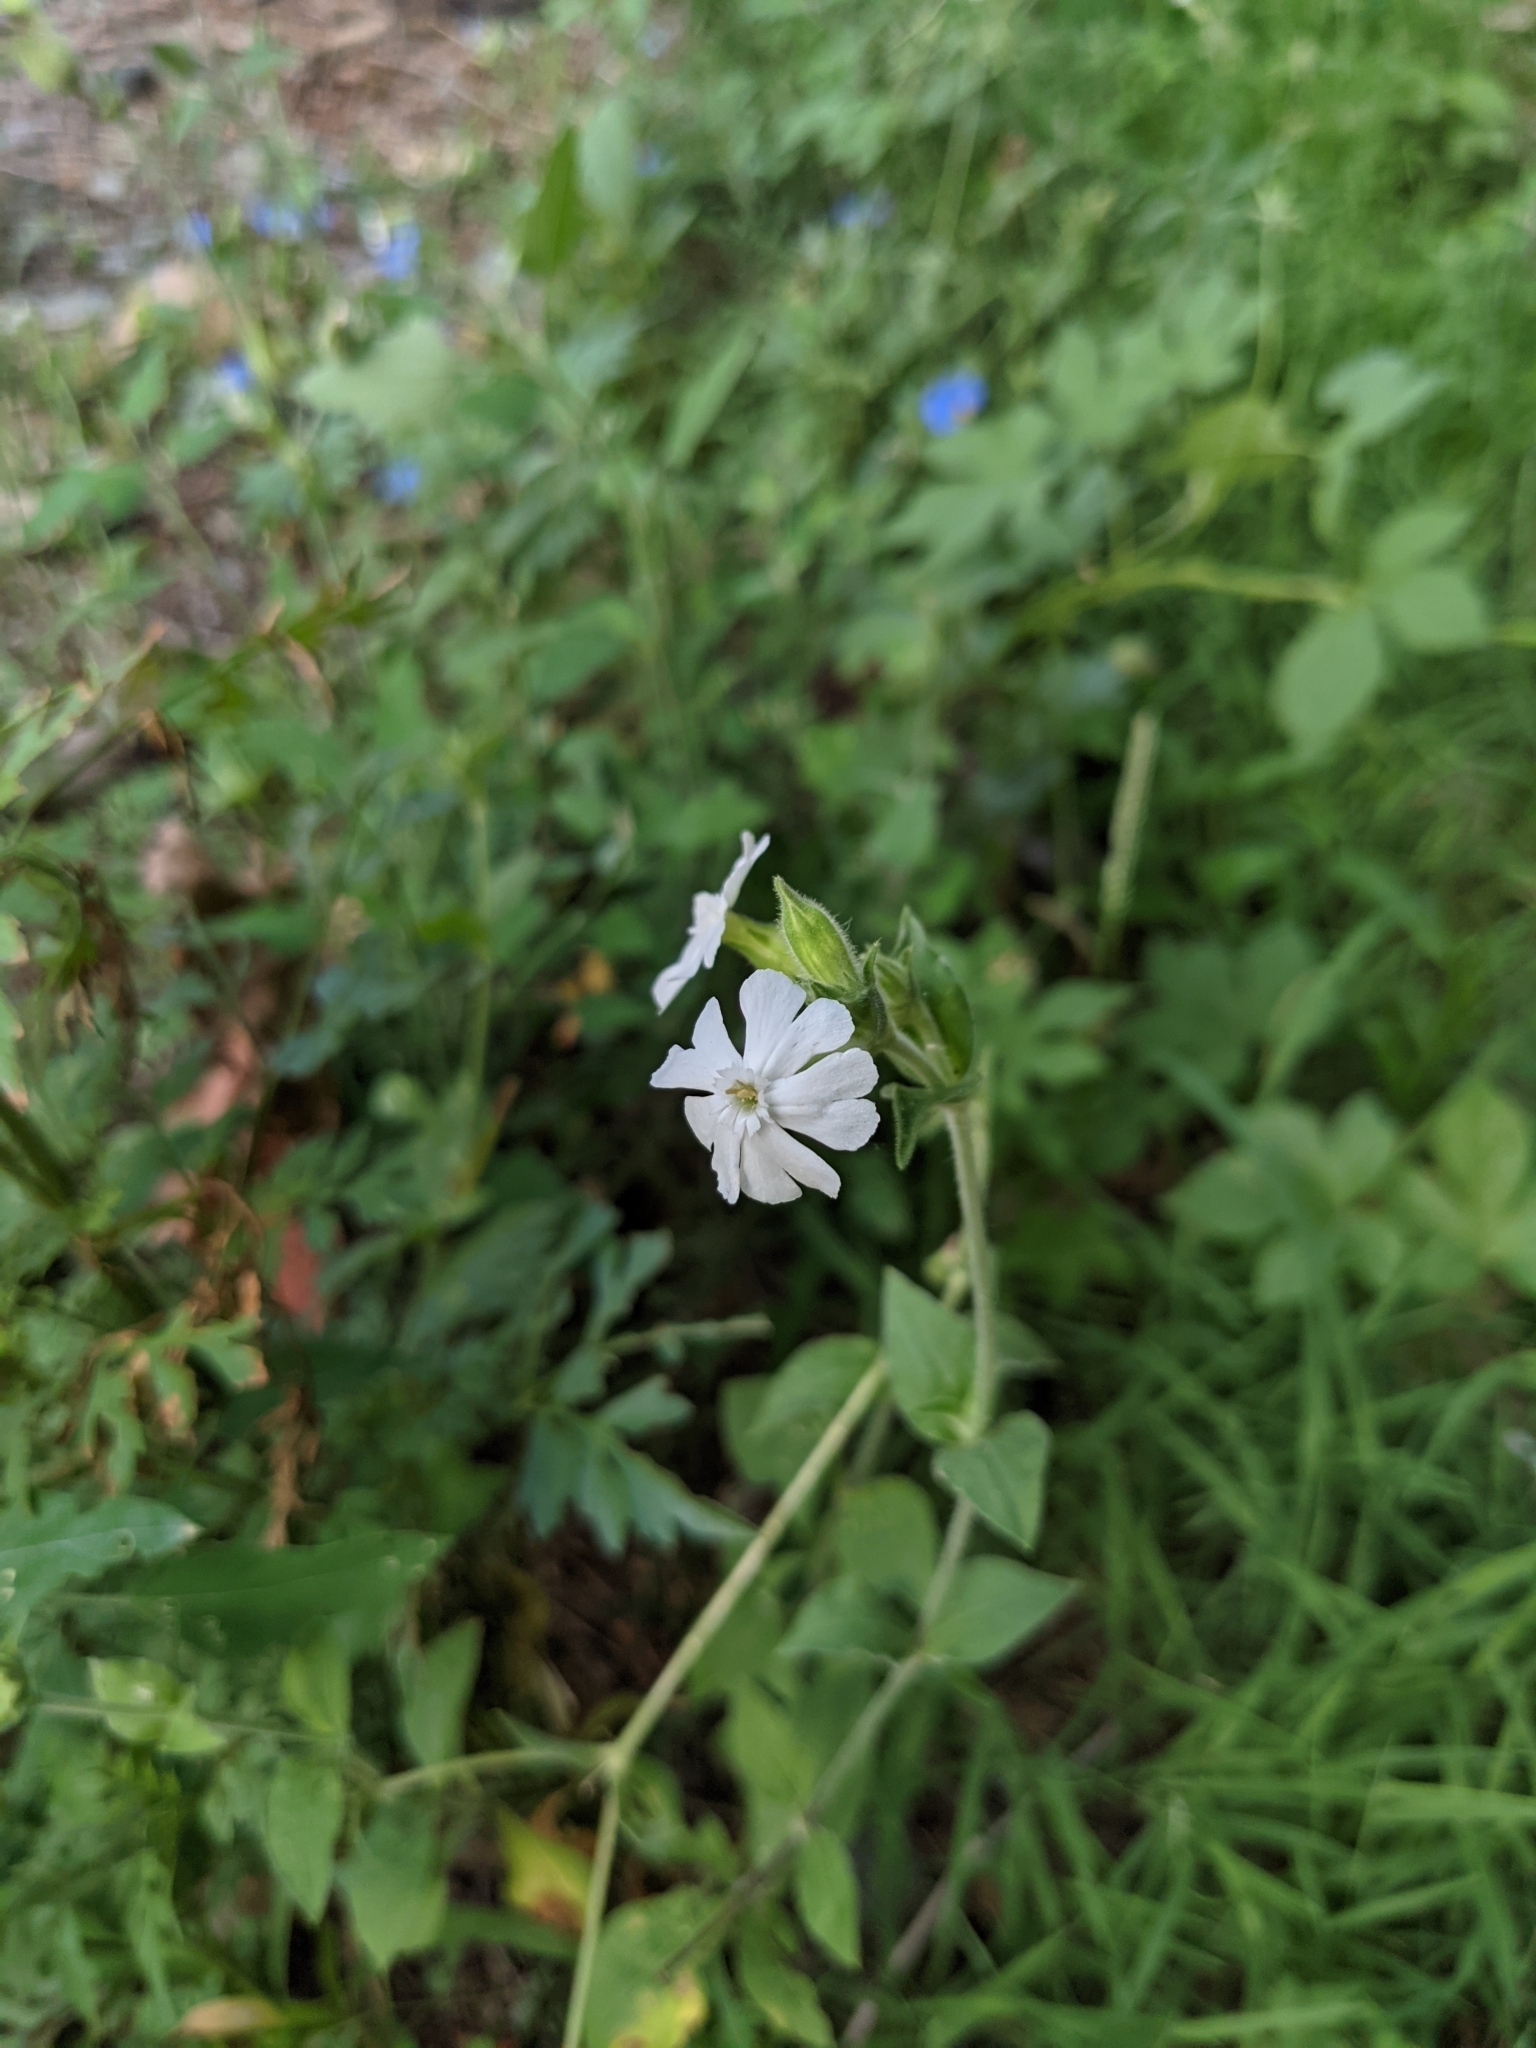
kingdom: Plantae
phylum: Tracheophyta
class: Magnoliopsida
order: Caryophyllales
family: Caryophyllaceae
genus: Silene
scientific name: Silene latifolia
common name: White campion
